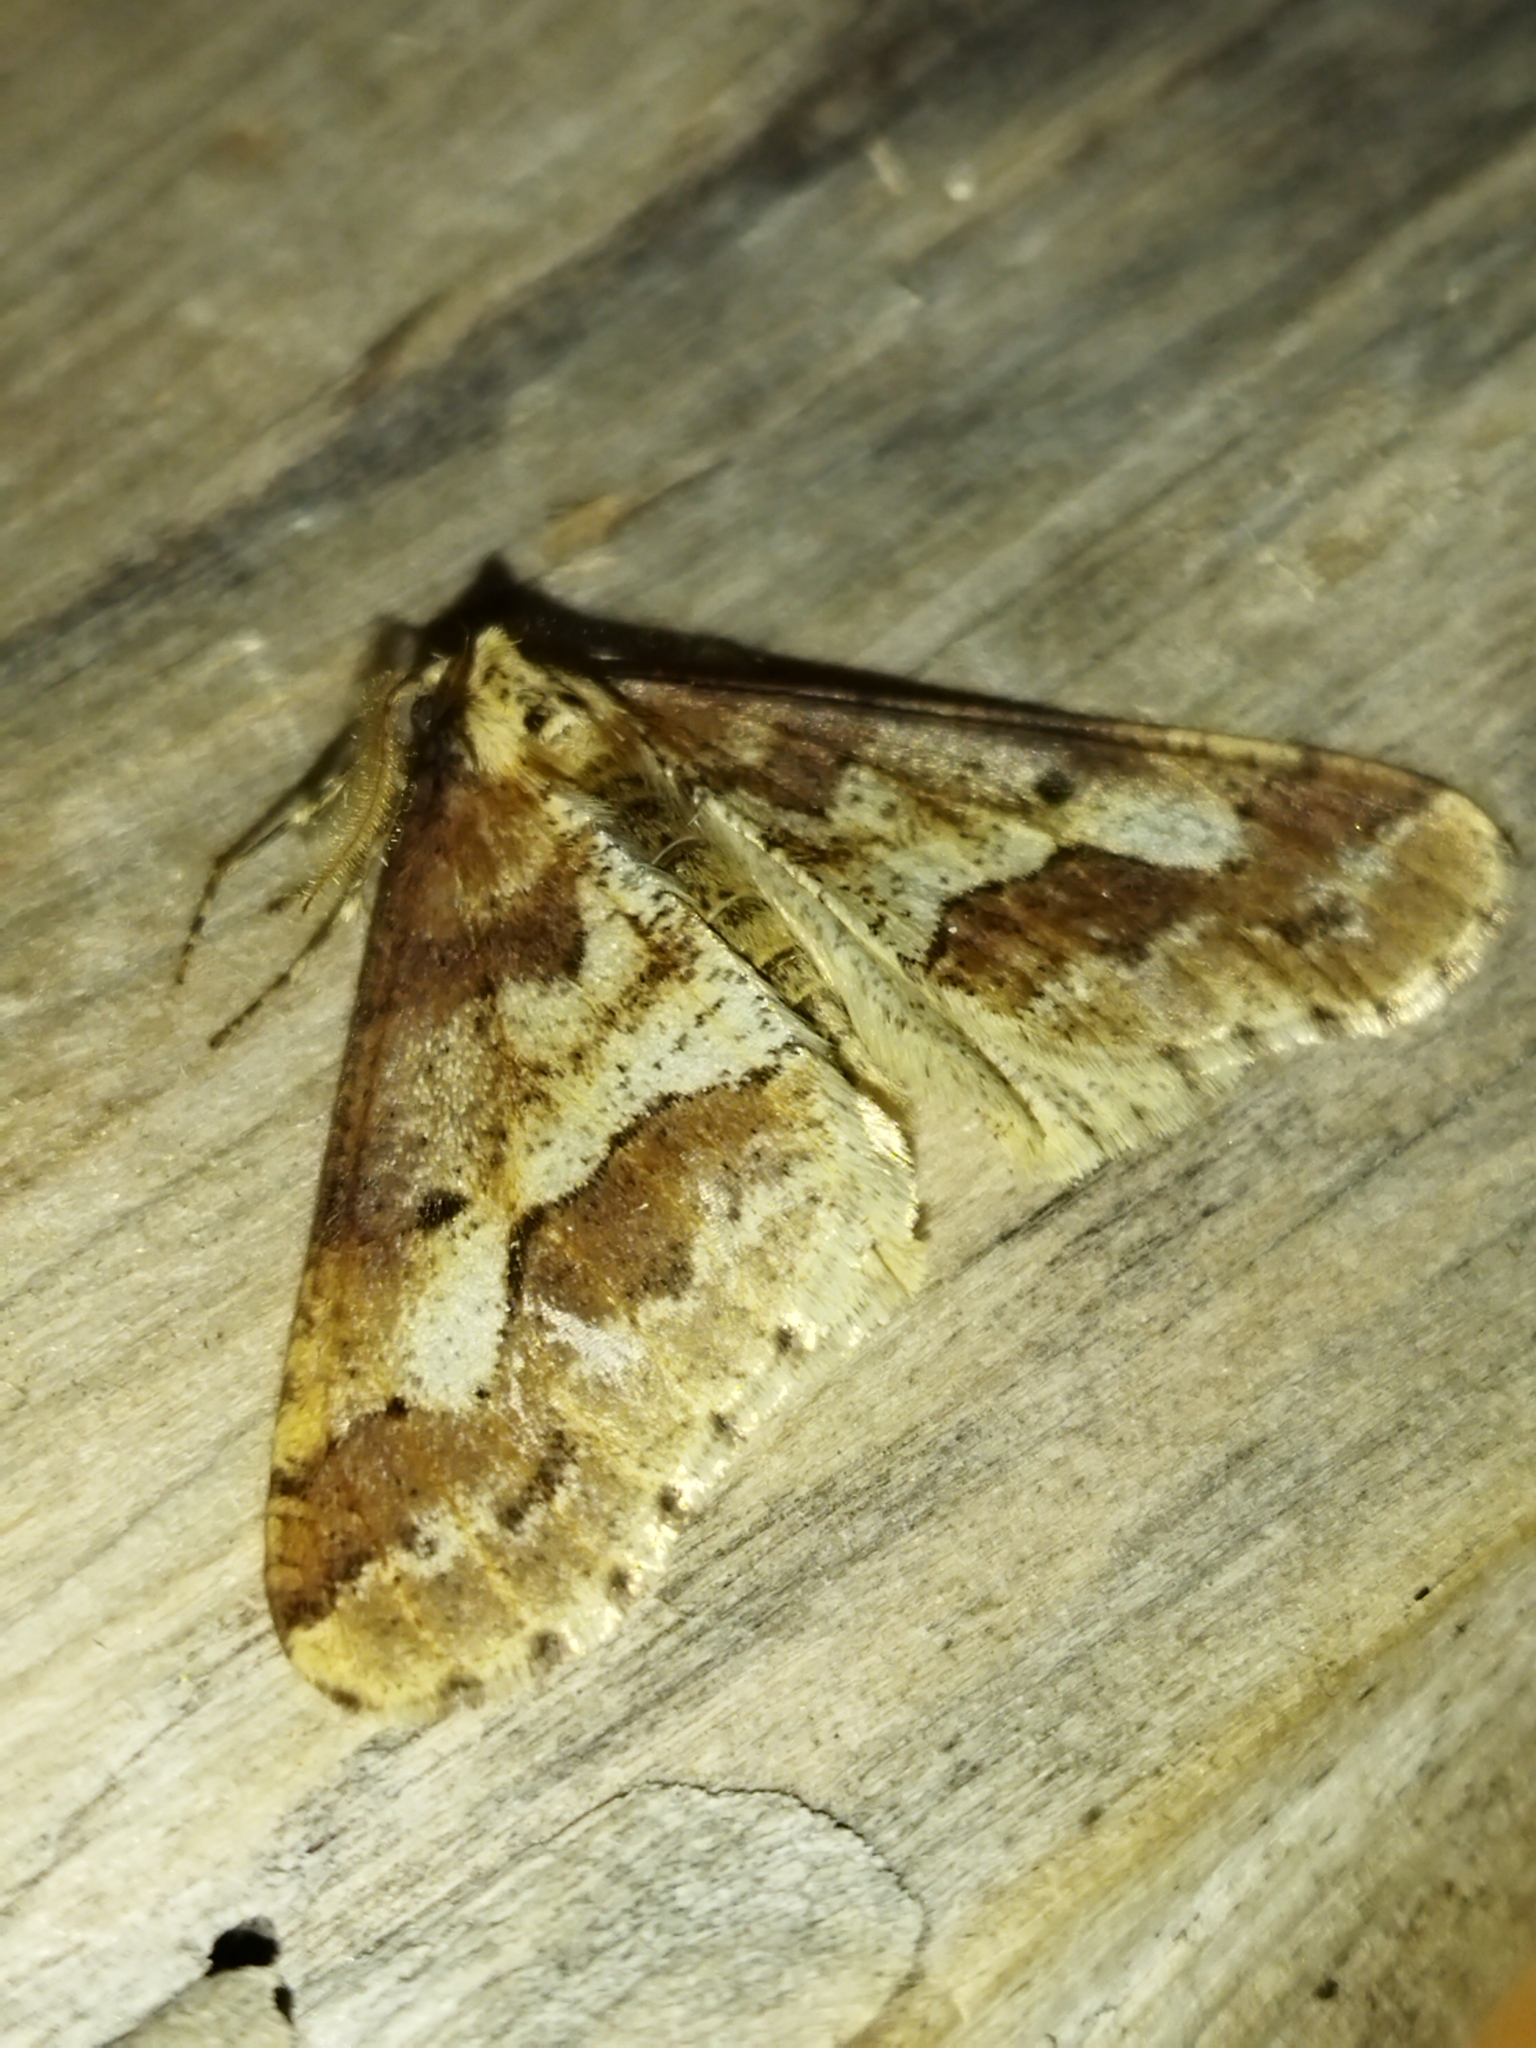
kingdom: Animalia
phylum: Arthropoda
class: Insecta
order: Lepidoptera
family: Geometridae
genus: Erannis
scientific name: Erannis defoliaria
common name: Mottled umber
